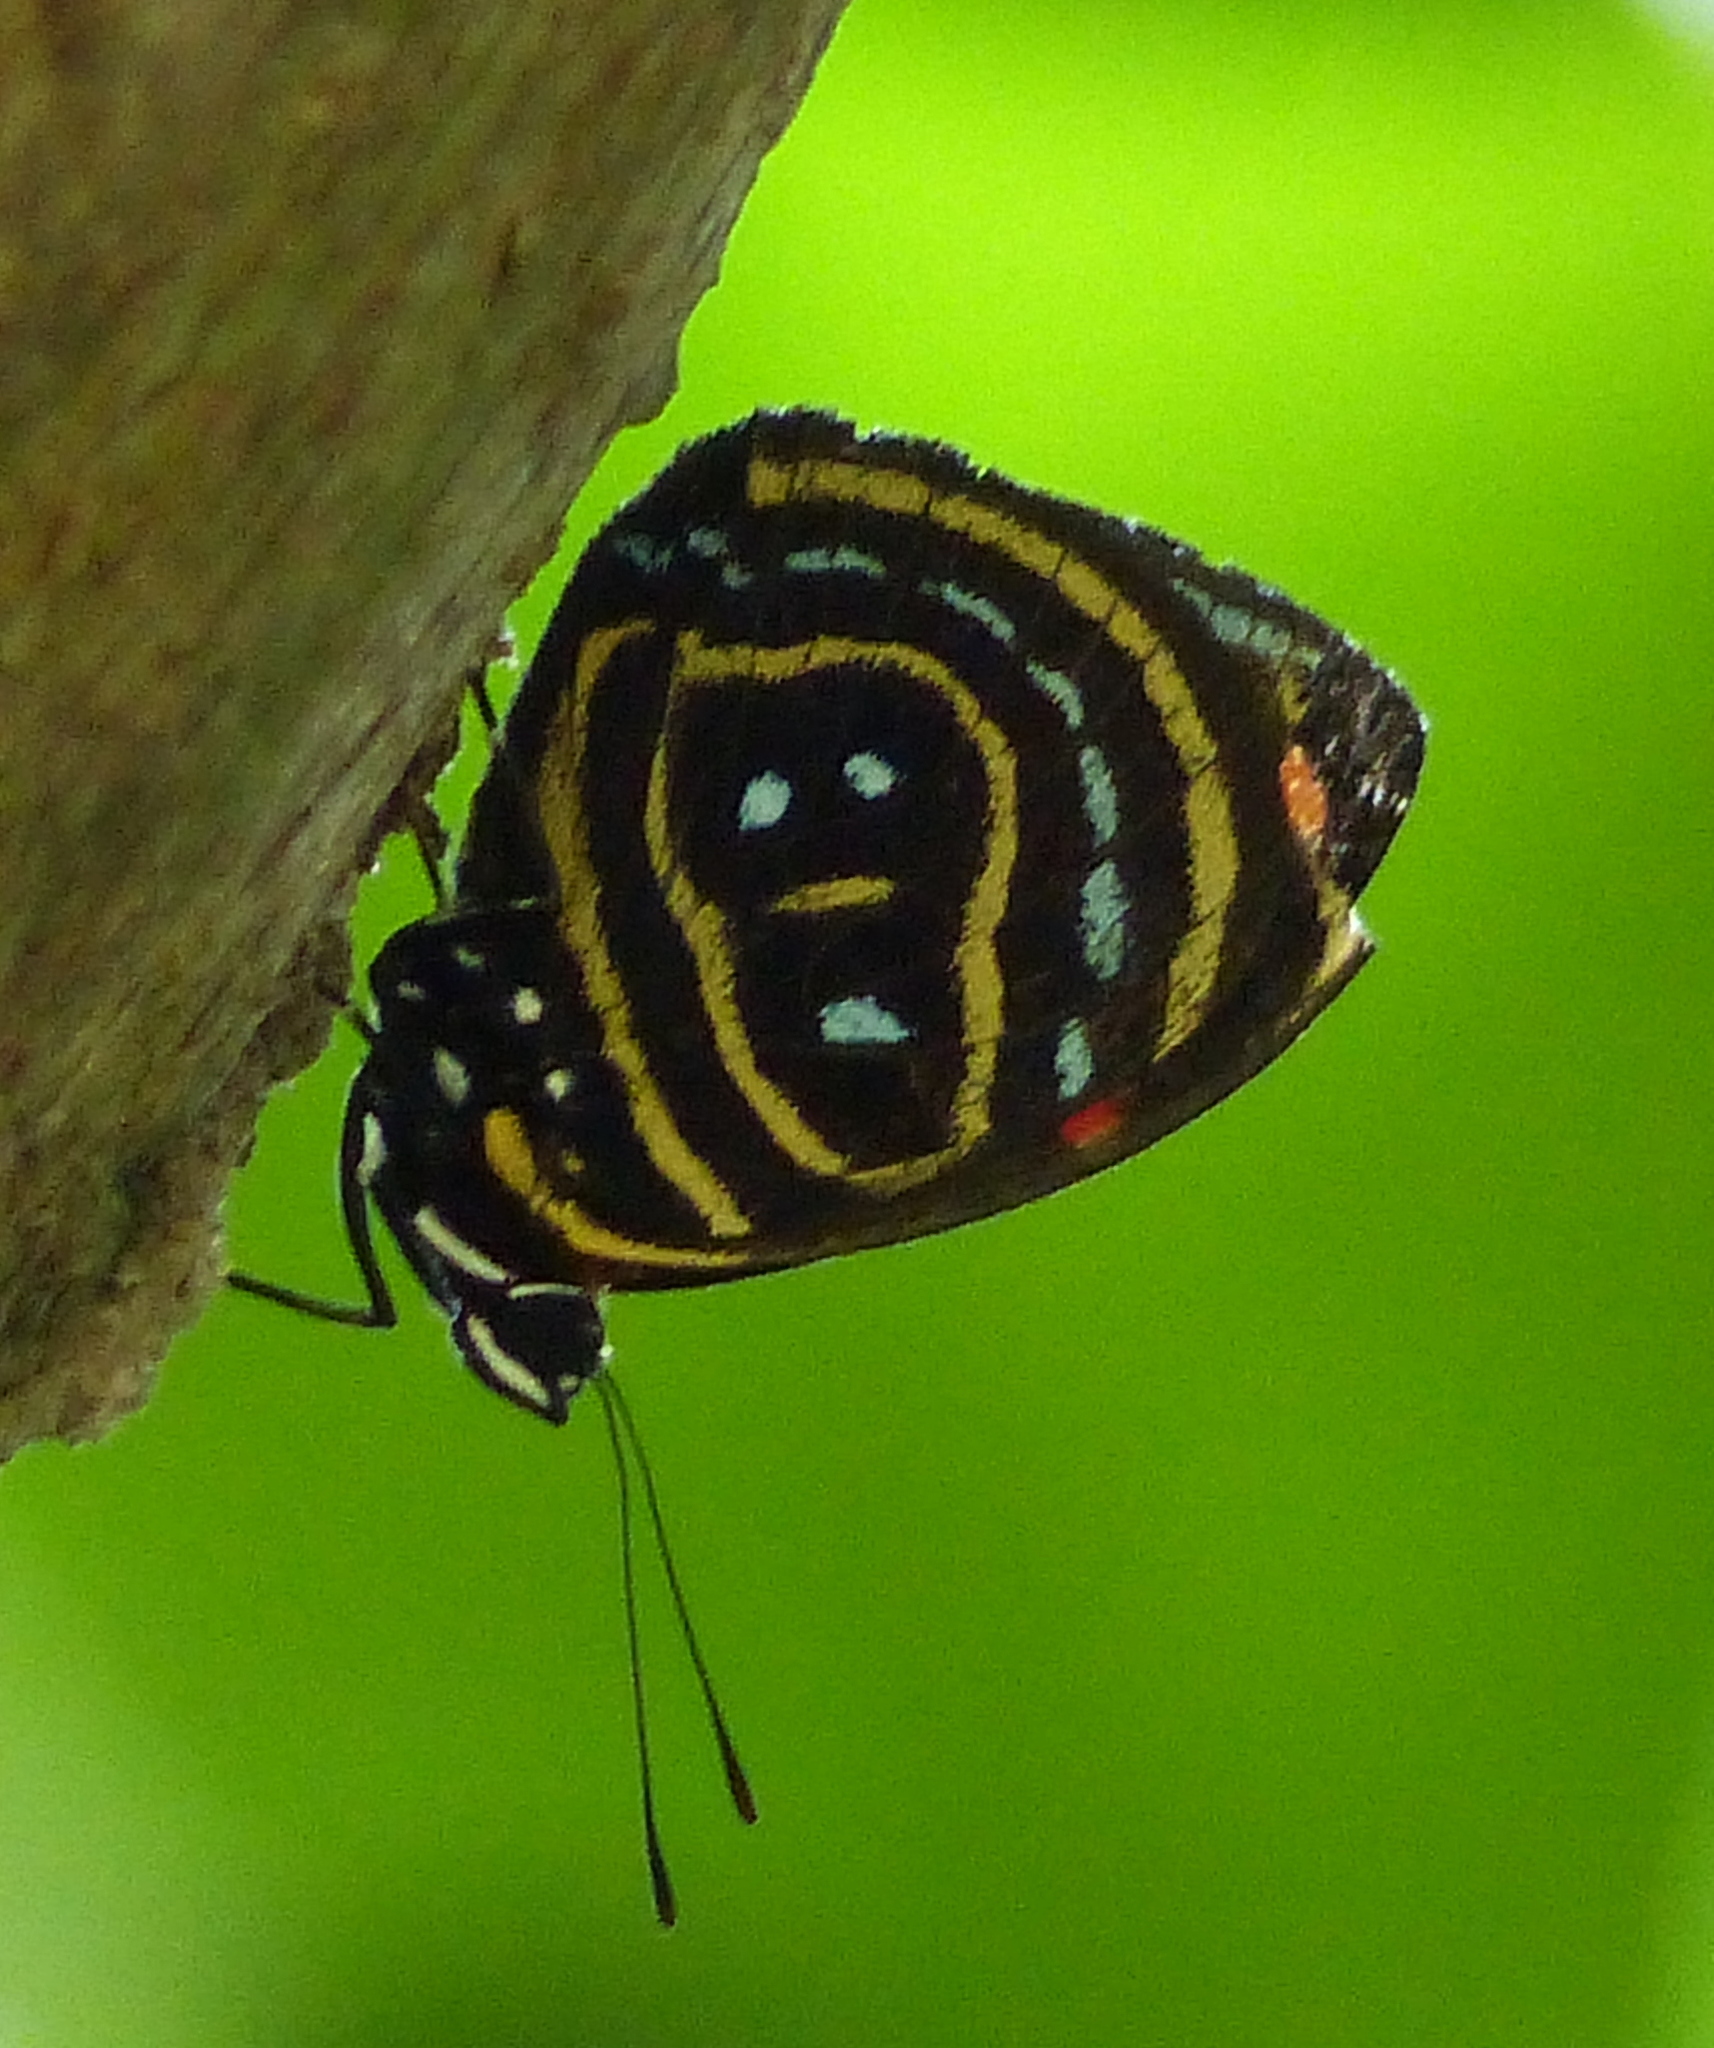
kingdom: Animalia
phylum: Arthropoda
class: Insecta
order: Lepidoptera
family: Nymphalidae
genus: Catagramma
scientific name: Catagramma astarte
